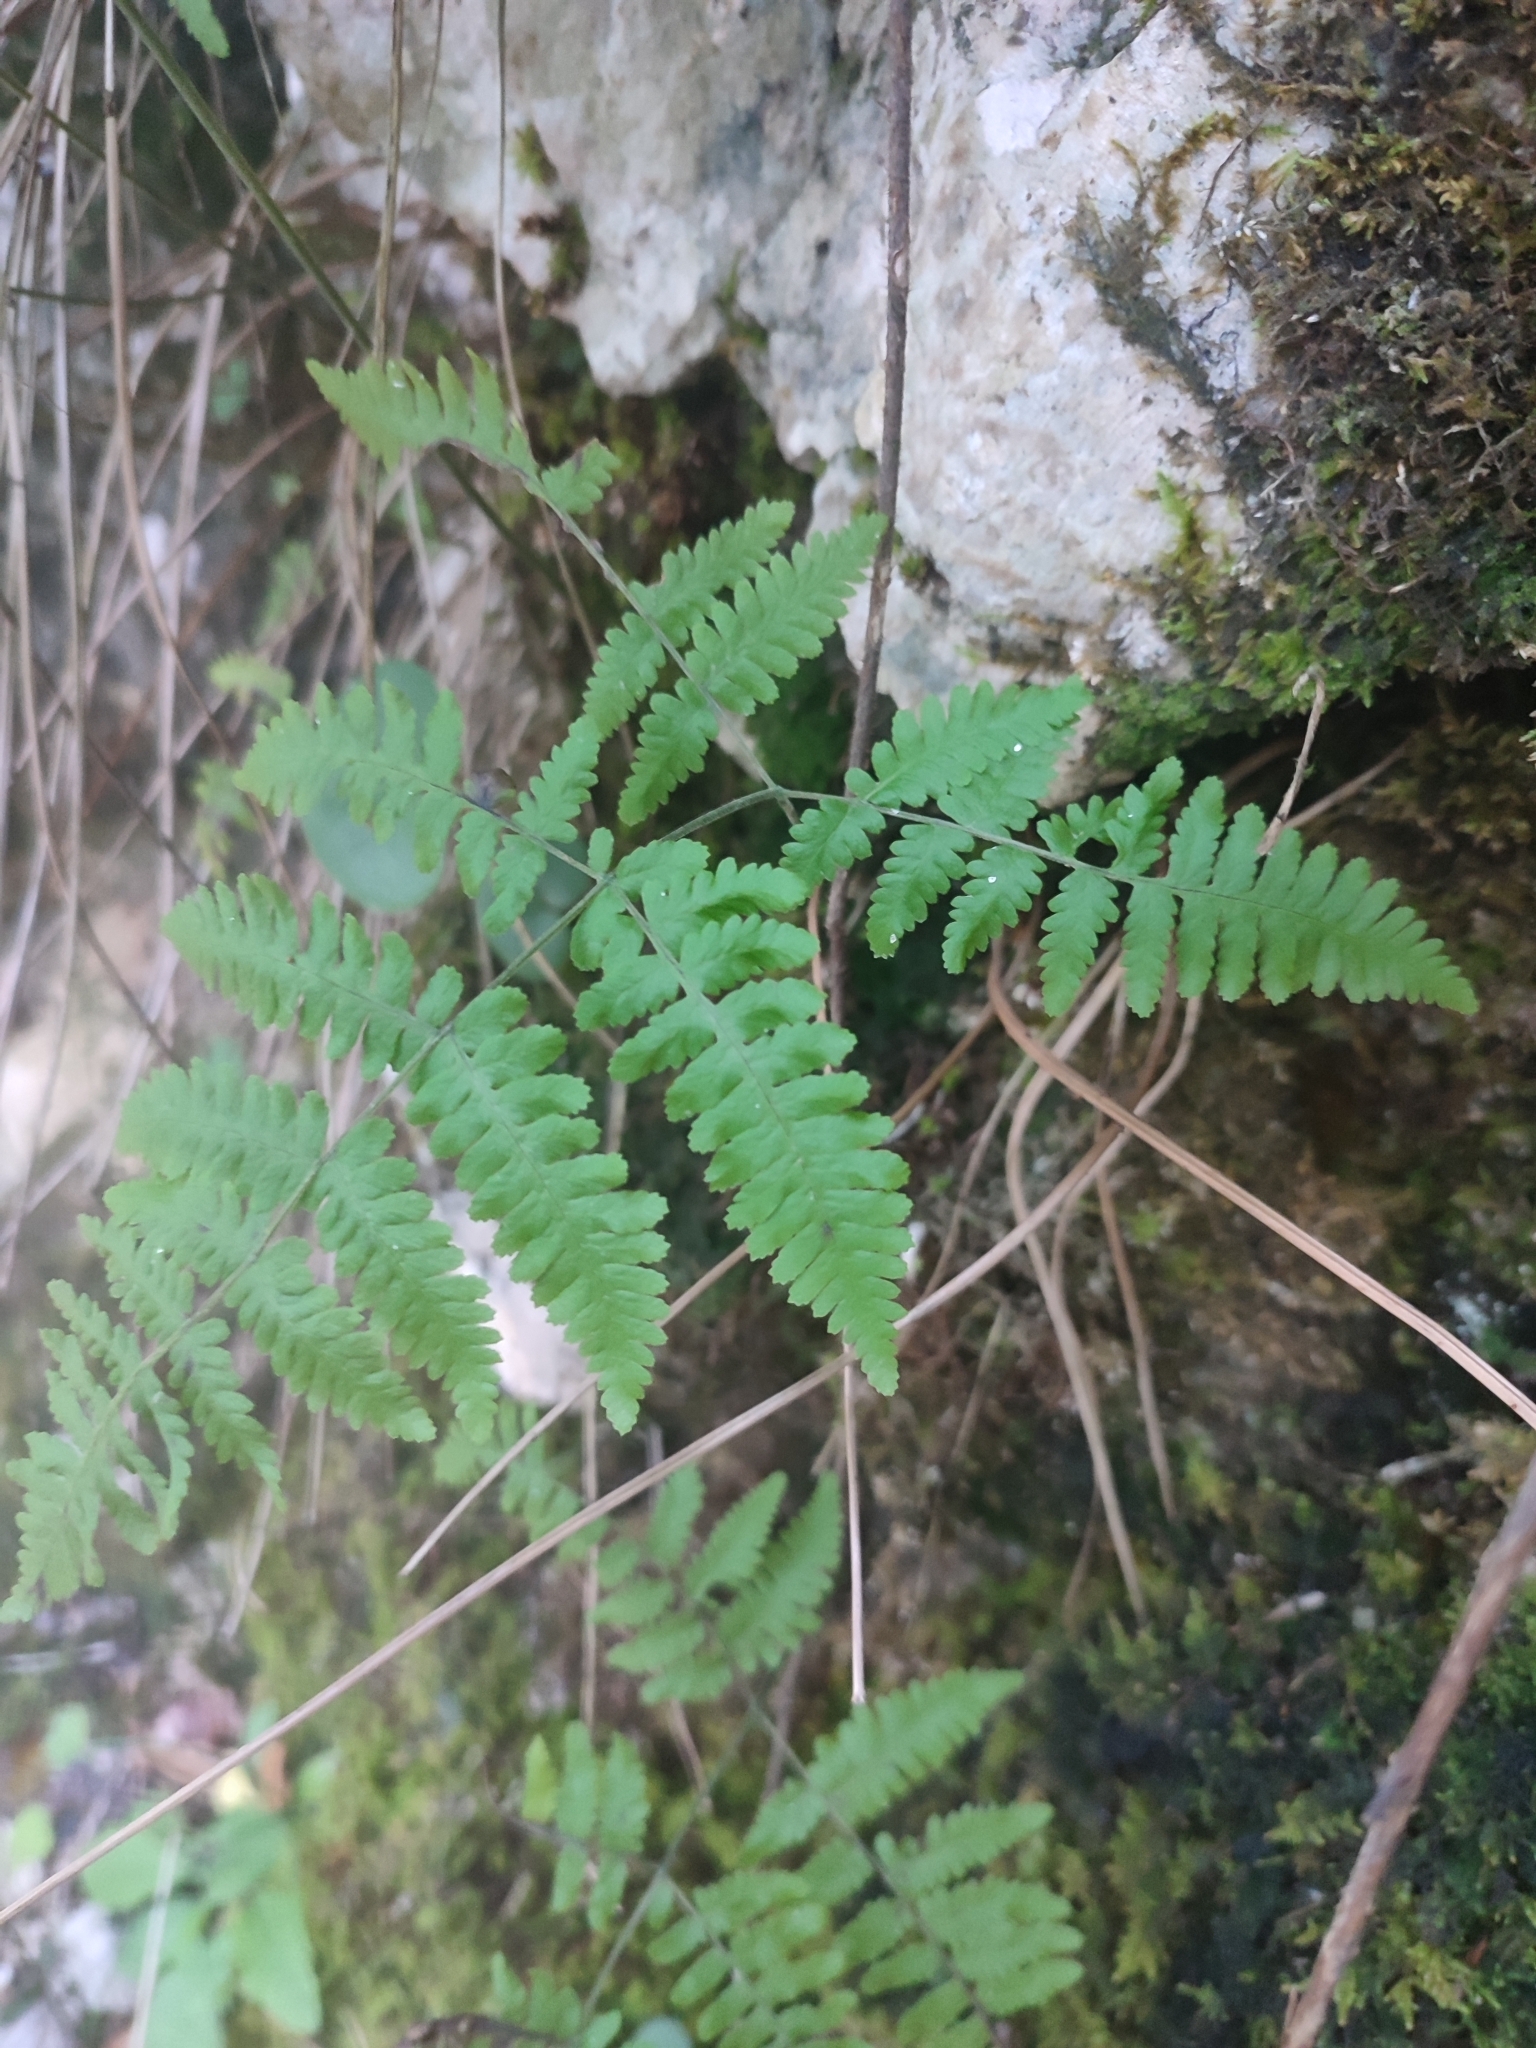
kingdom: Plantae
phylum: Tracheophyta
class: Polypodiopsida
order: Polypodiales
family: Cystopteridaceae
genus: Gymnocarpium
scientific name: Gymnocarpium robertianum
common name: Limestone fern
